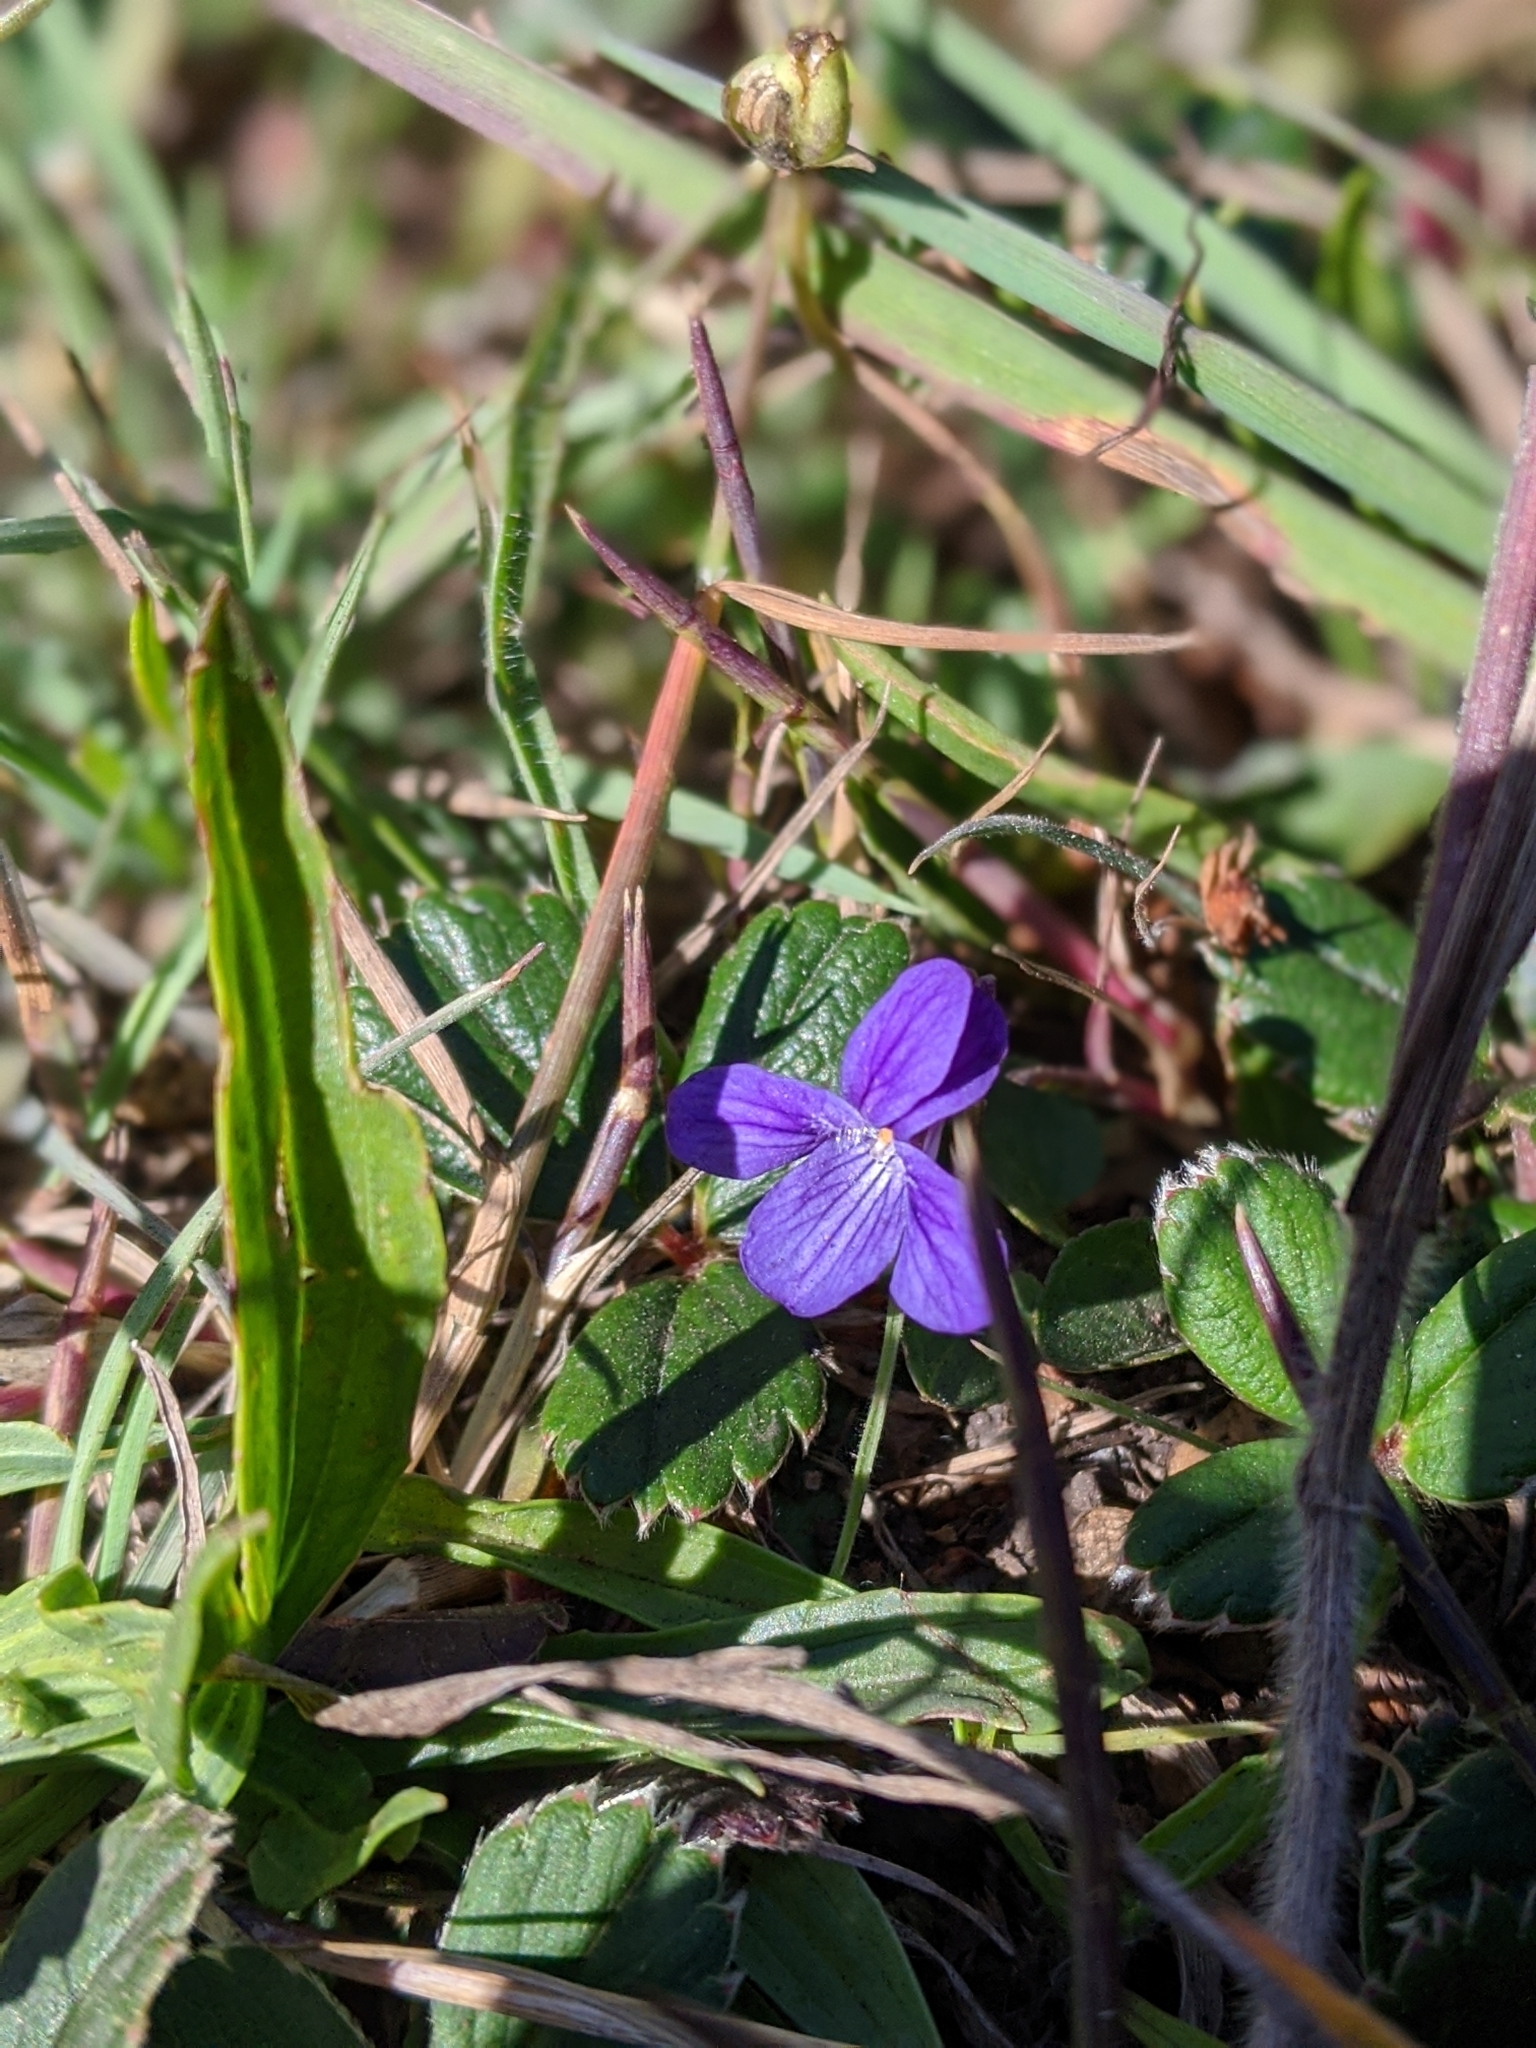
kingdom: Plantae
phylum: Tracheophyta
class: Magnoliopsida
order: Malpighiales
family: Violaceae
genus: Viola
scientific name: Viola adunca
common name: Sand violet
